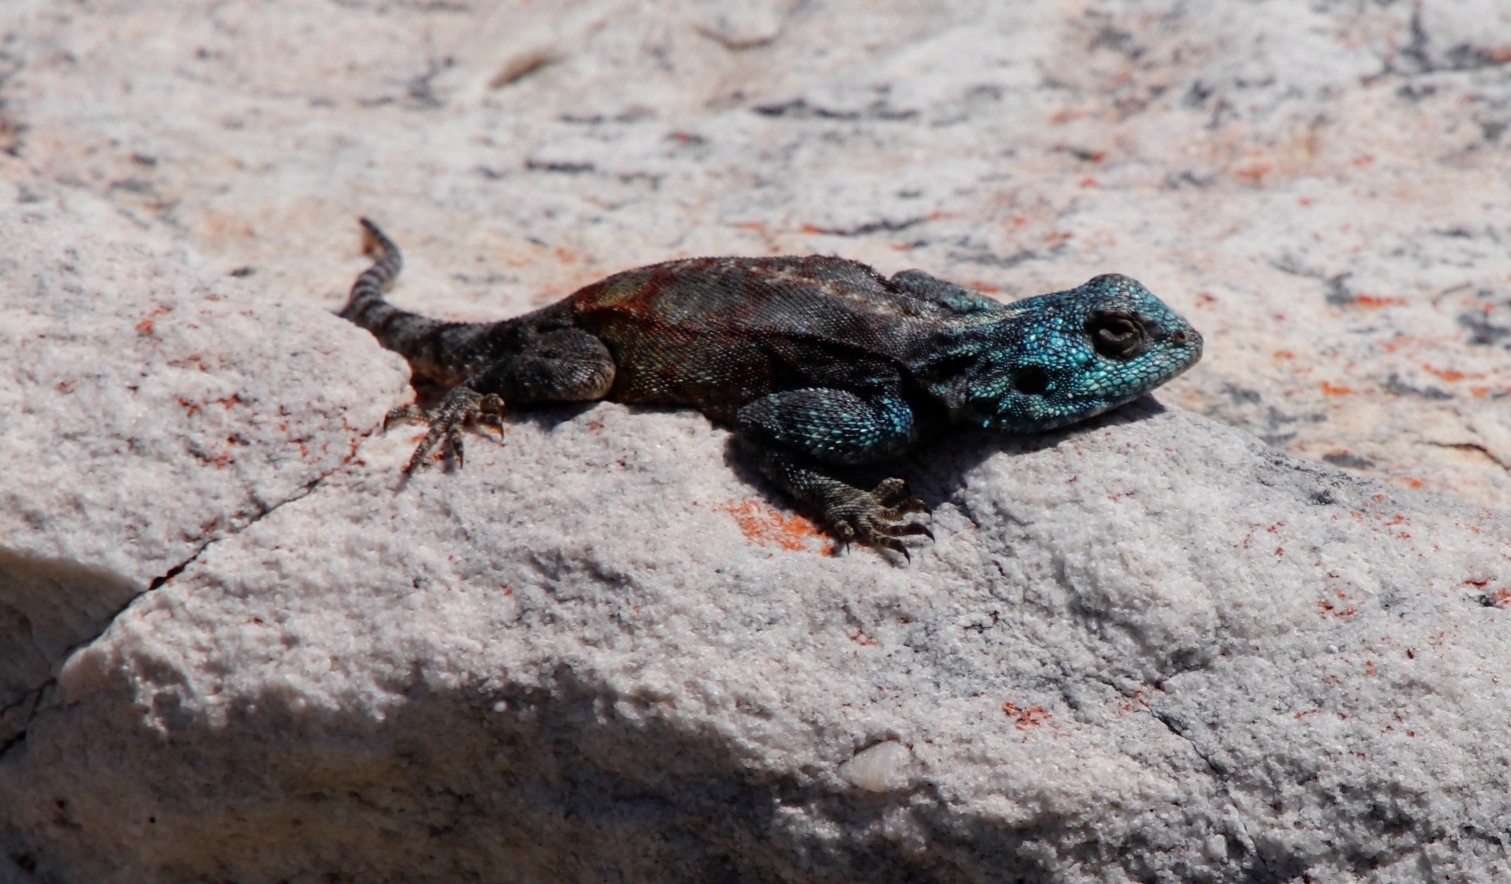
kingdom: Animalia
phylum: Chordata
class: Squamata
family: Agamidae
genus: Agama
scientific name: Agama atra
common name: Southern african rock agama
